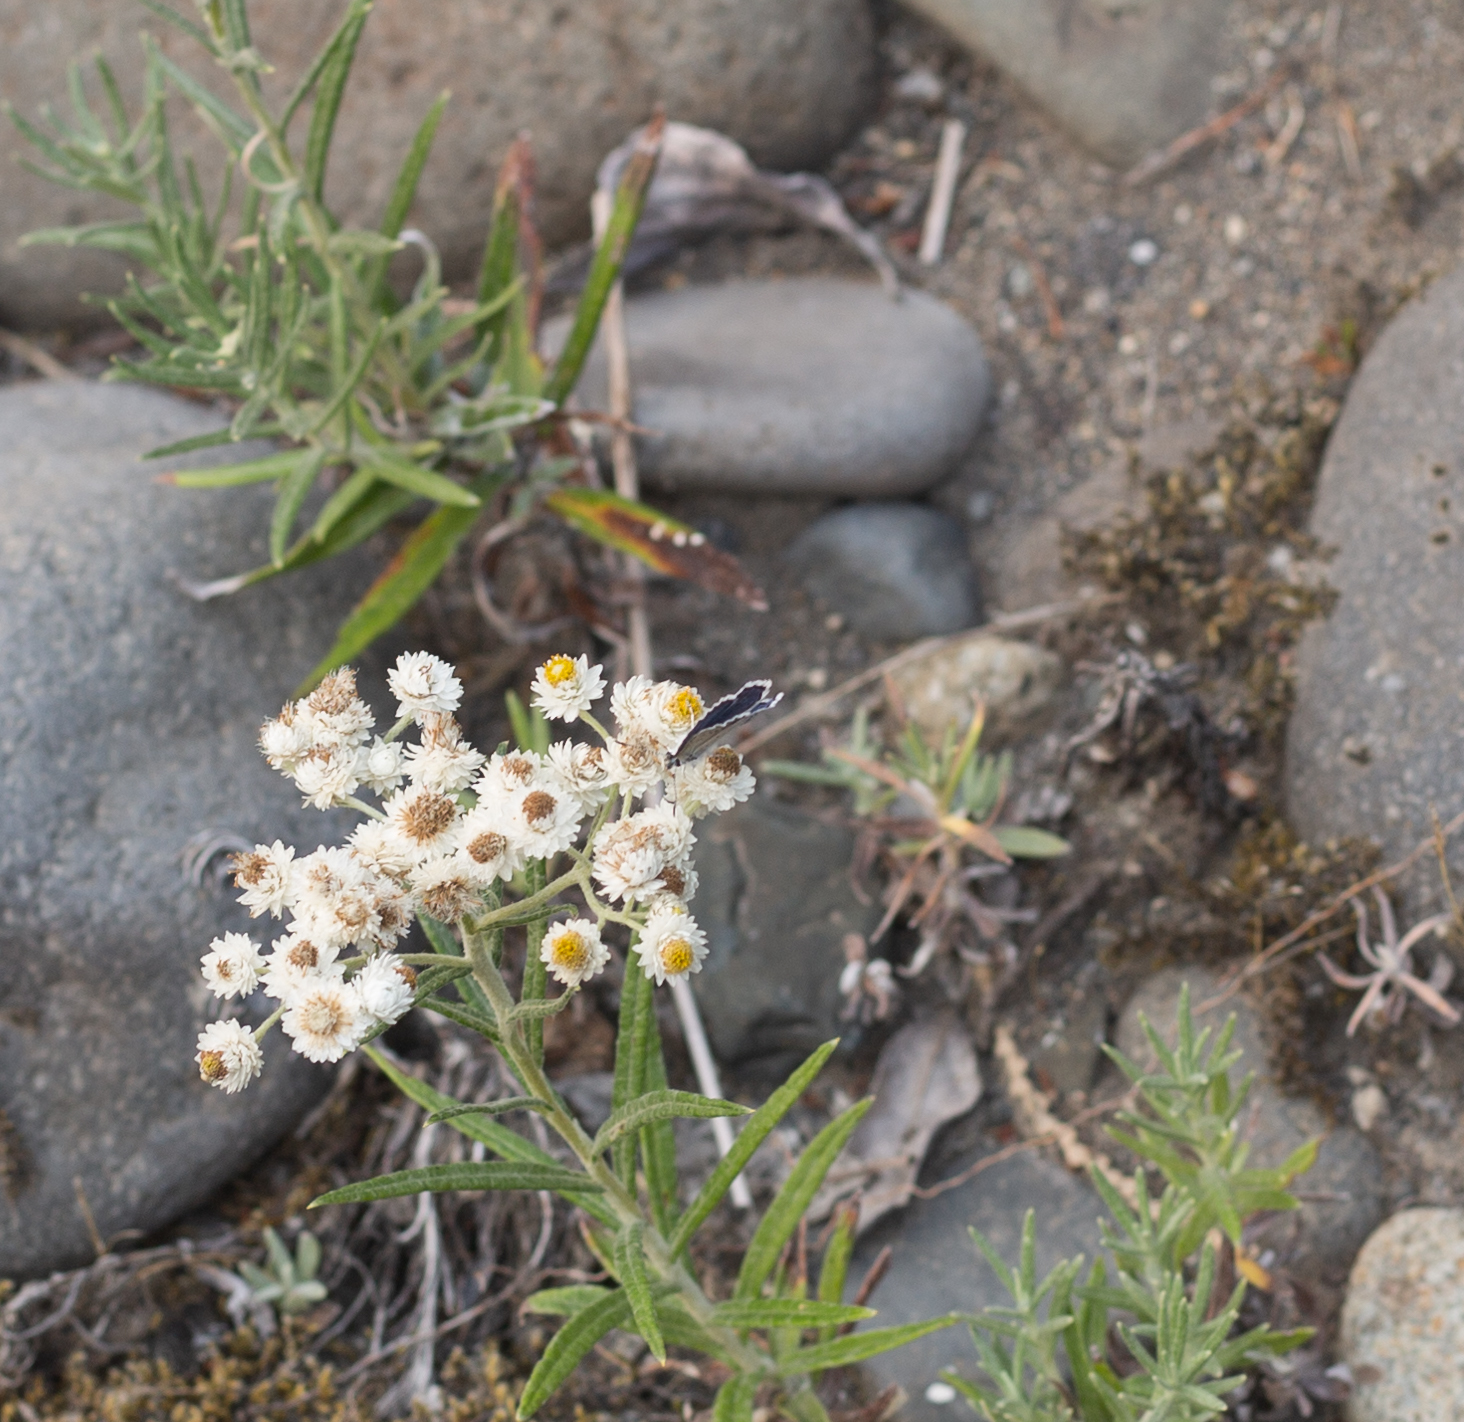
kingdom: Plantae
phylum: Tracheophyta
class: Magnoliopsida
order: Asterales
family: Asteraceae
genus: Anaphalis
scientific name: Anaphalis margaritacea
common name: Pearly everlasting
